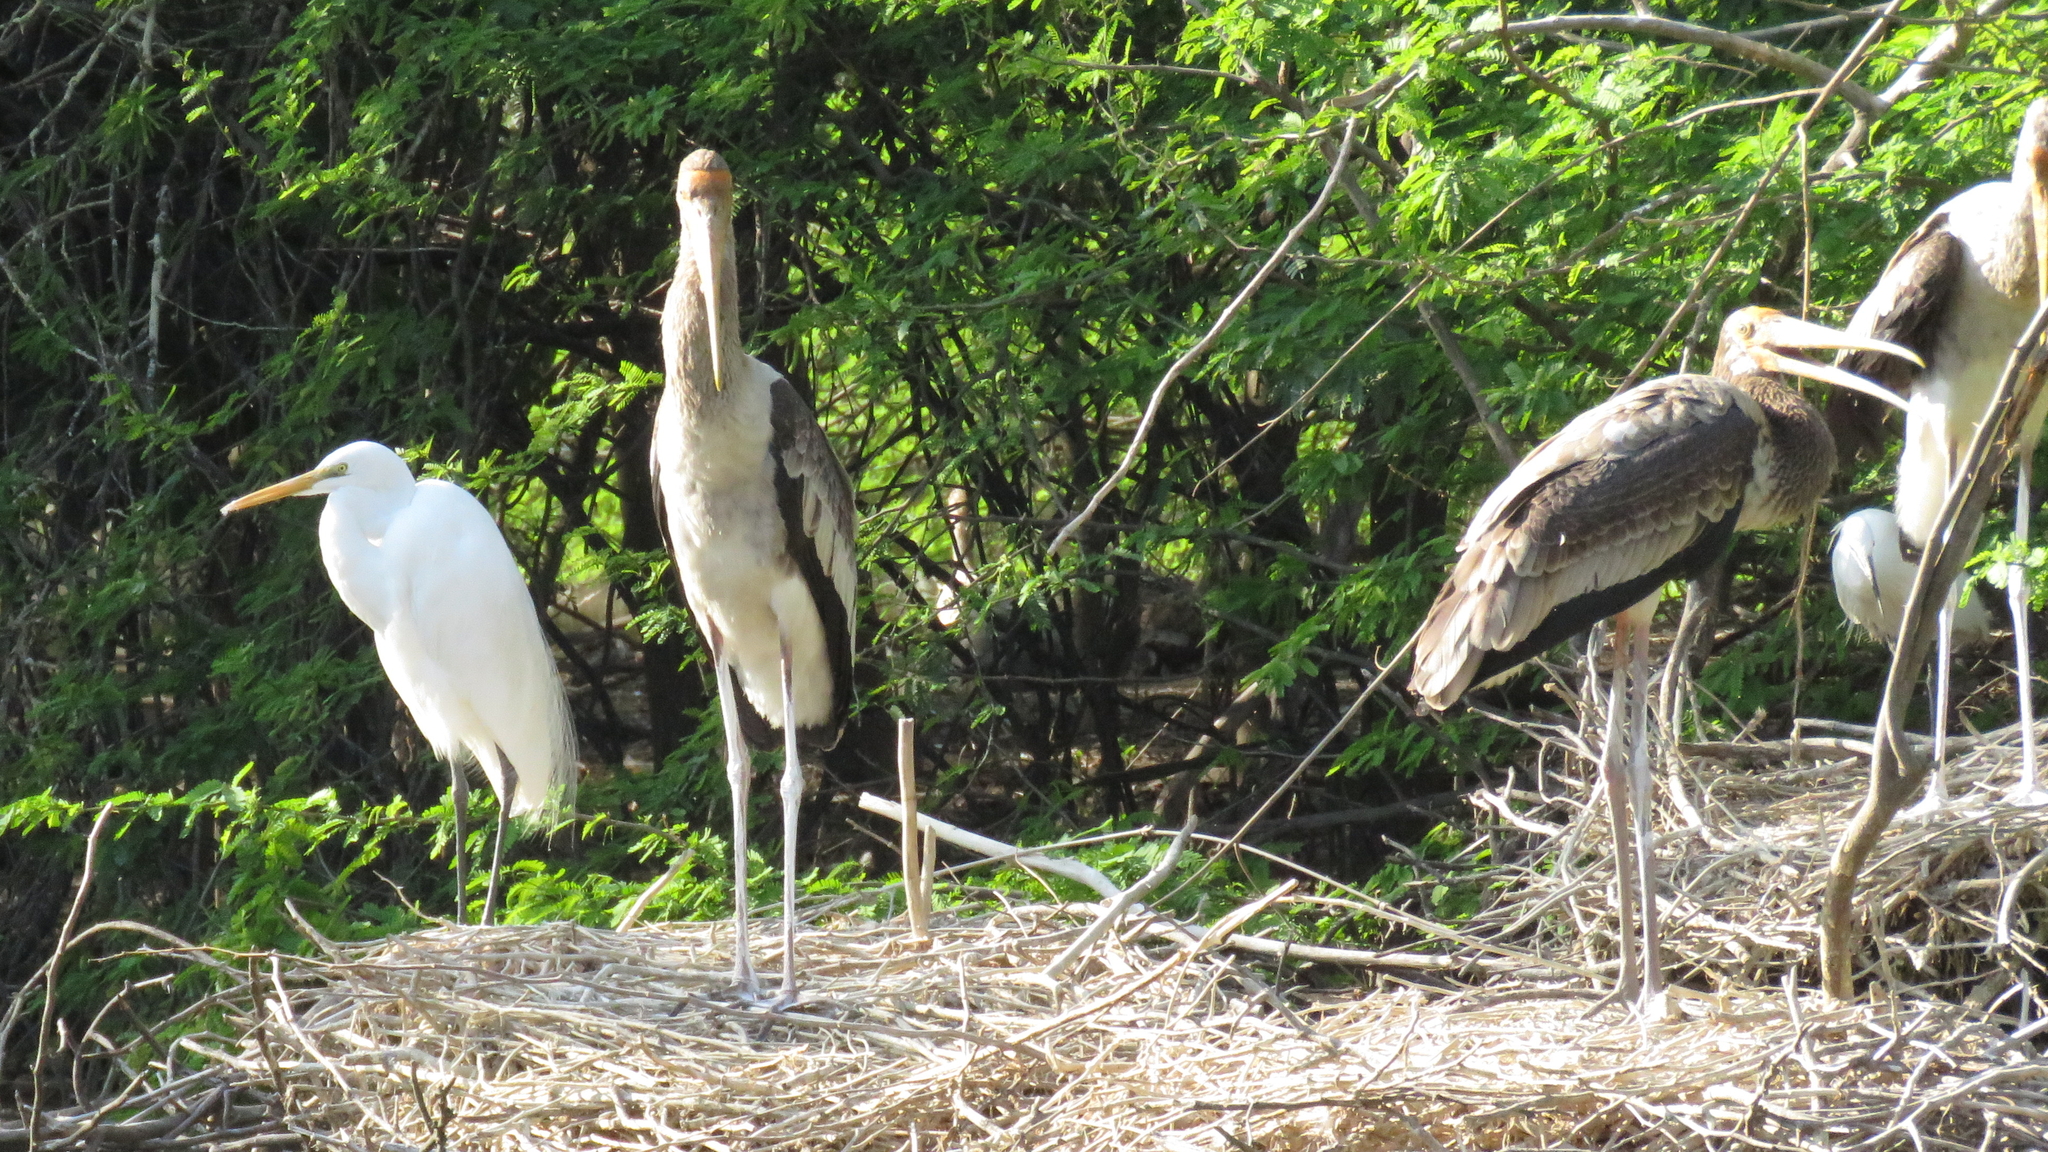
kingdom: Animalia
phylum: Chordata
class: Aves
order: Ciconiiformes
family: Ciconiidae
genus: Mycteria
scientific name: Mycteria leucocephala
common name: Painted stork
